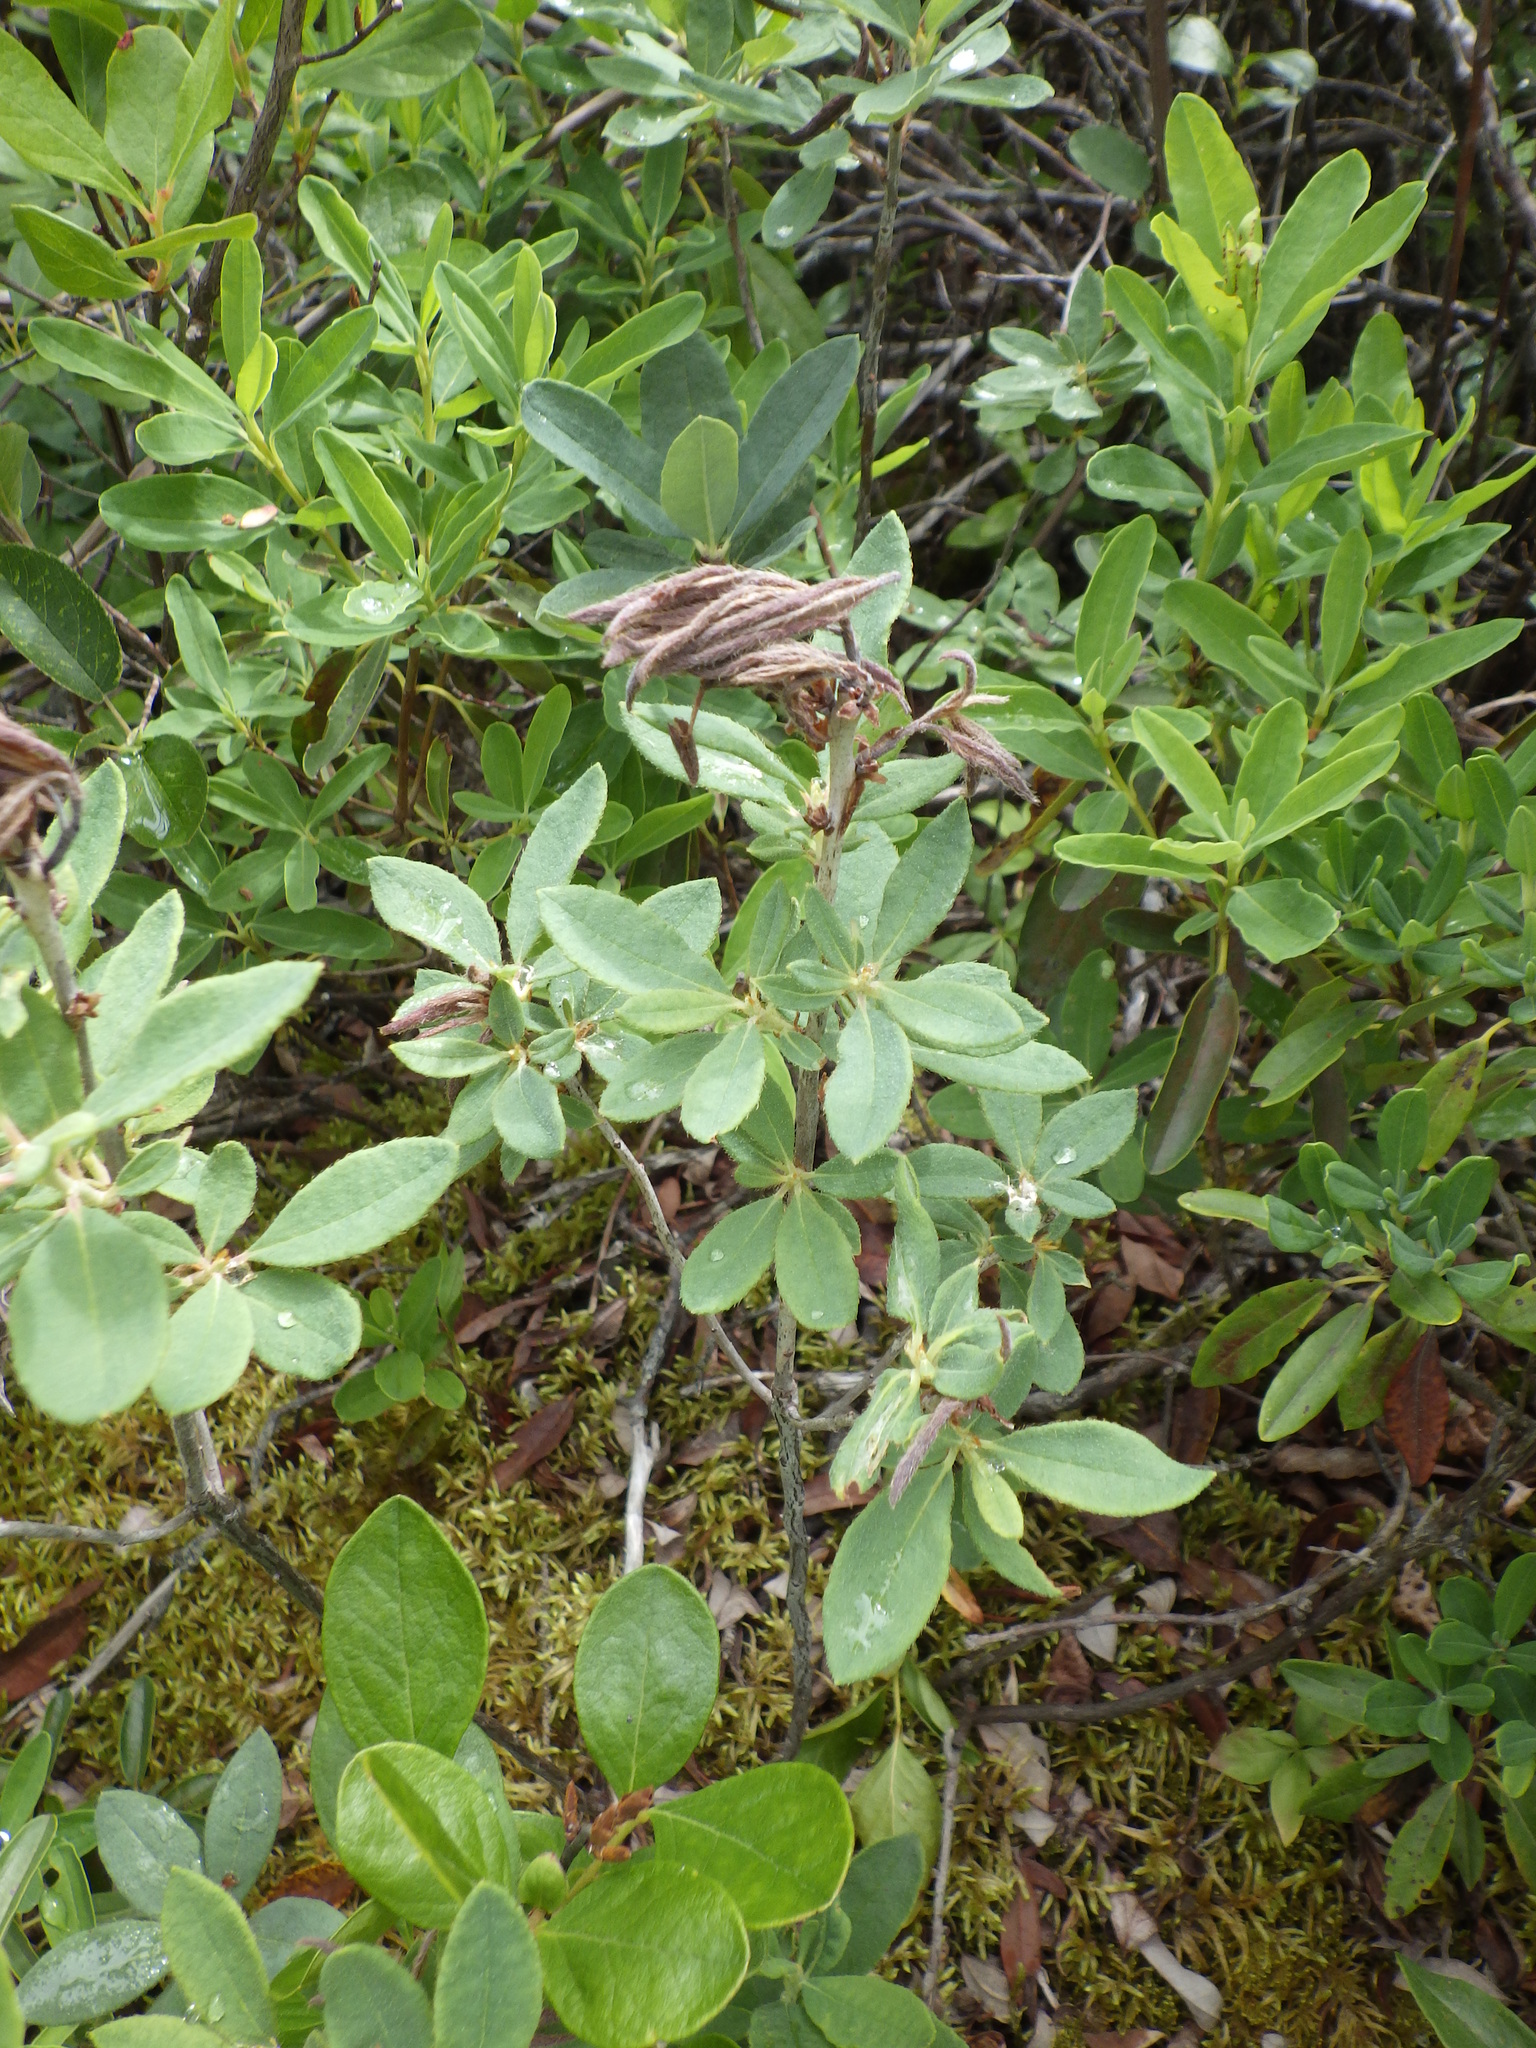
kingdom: Plantae
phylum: Tracheophyta
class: Magnoliopsida
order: Ericales
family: Ericaceae
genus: Rhododendron
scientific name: Rhododendron canadense
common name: Rhodora
